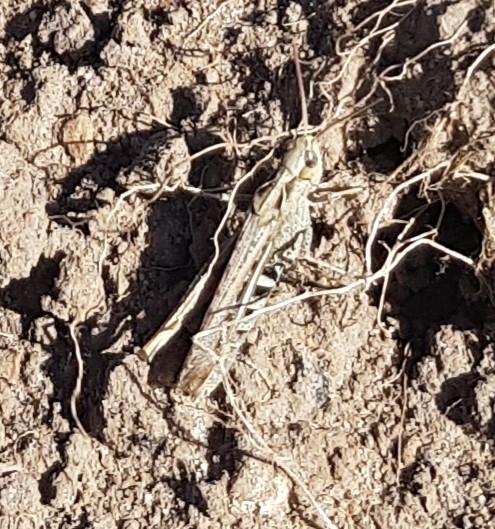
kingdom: Animalia
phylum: Arthropoda
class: Insecta
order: Orthoptera
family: Acrididae
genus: Chorthippus
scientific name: Chorthippus brunneus
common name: Field grasshopper
